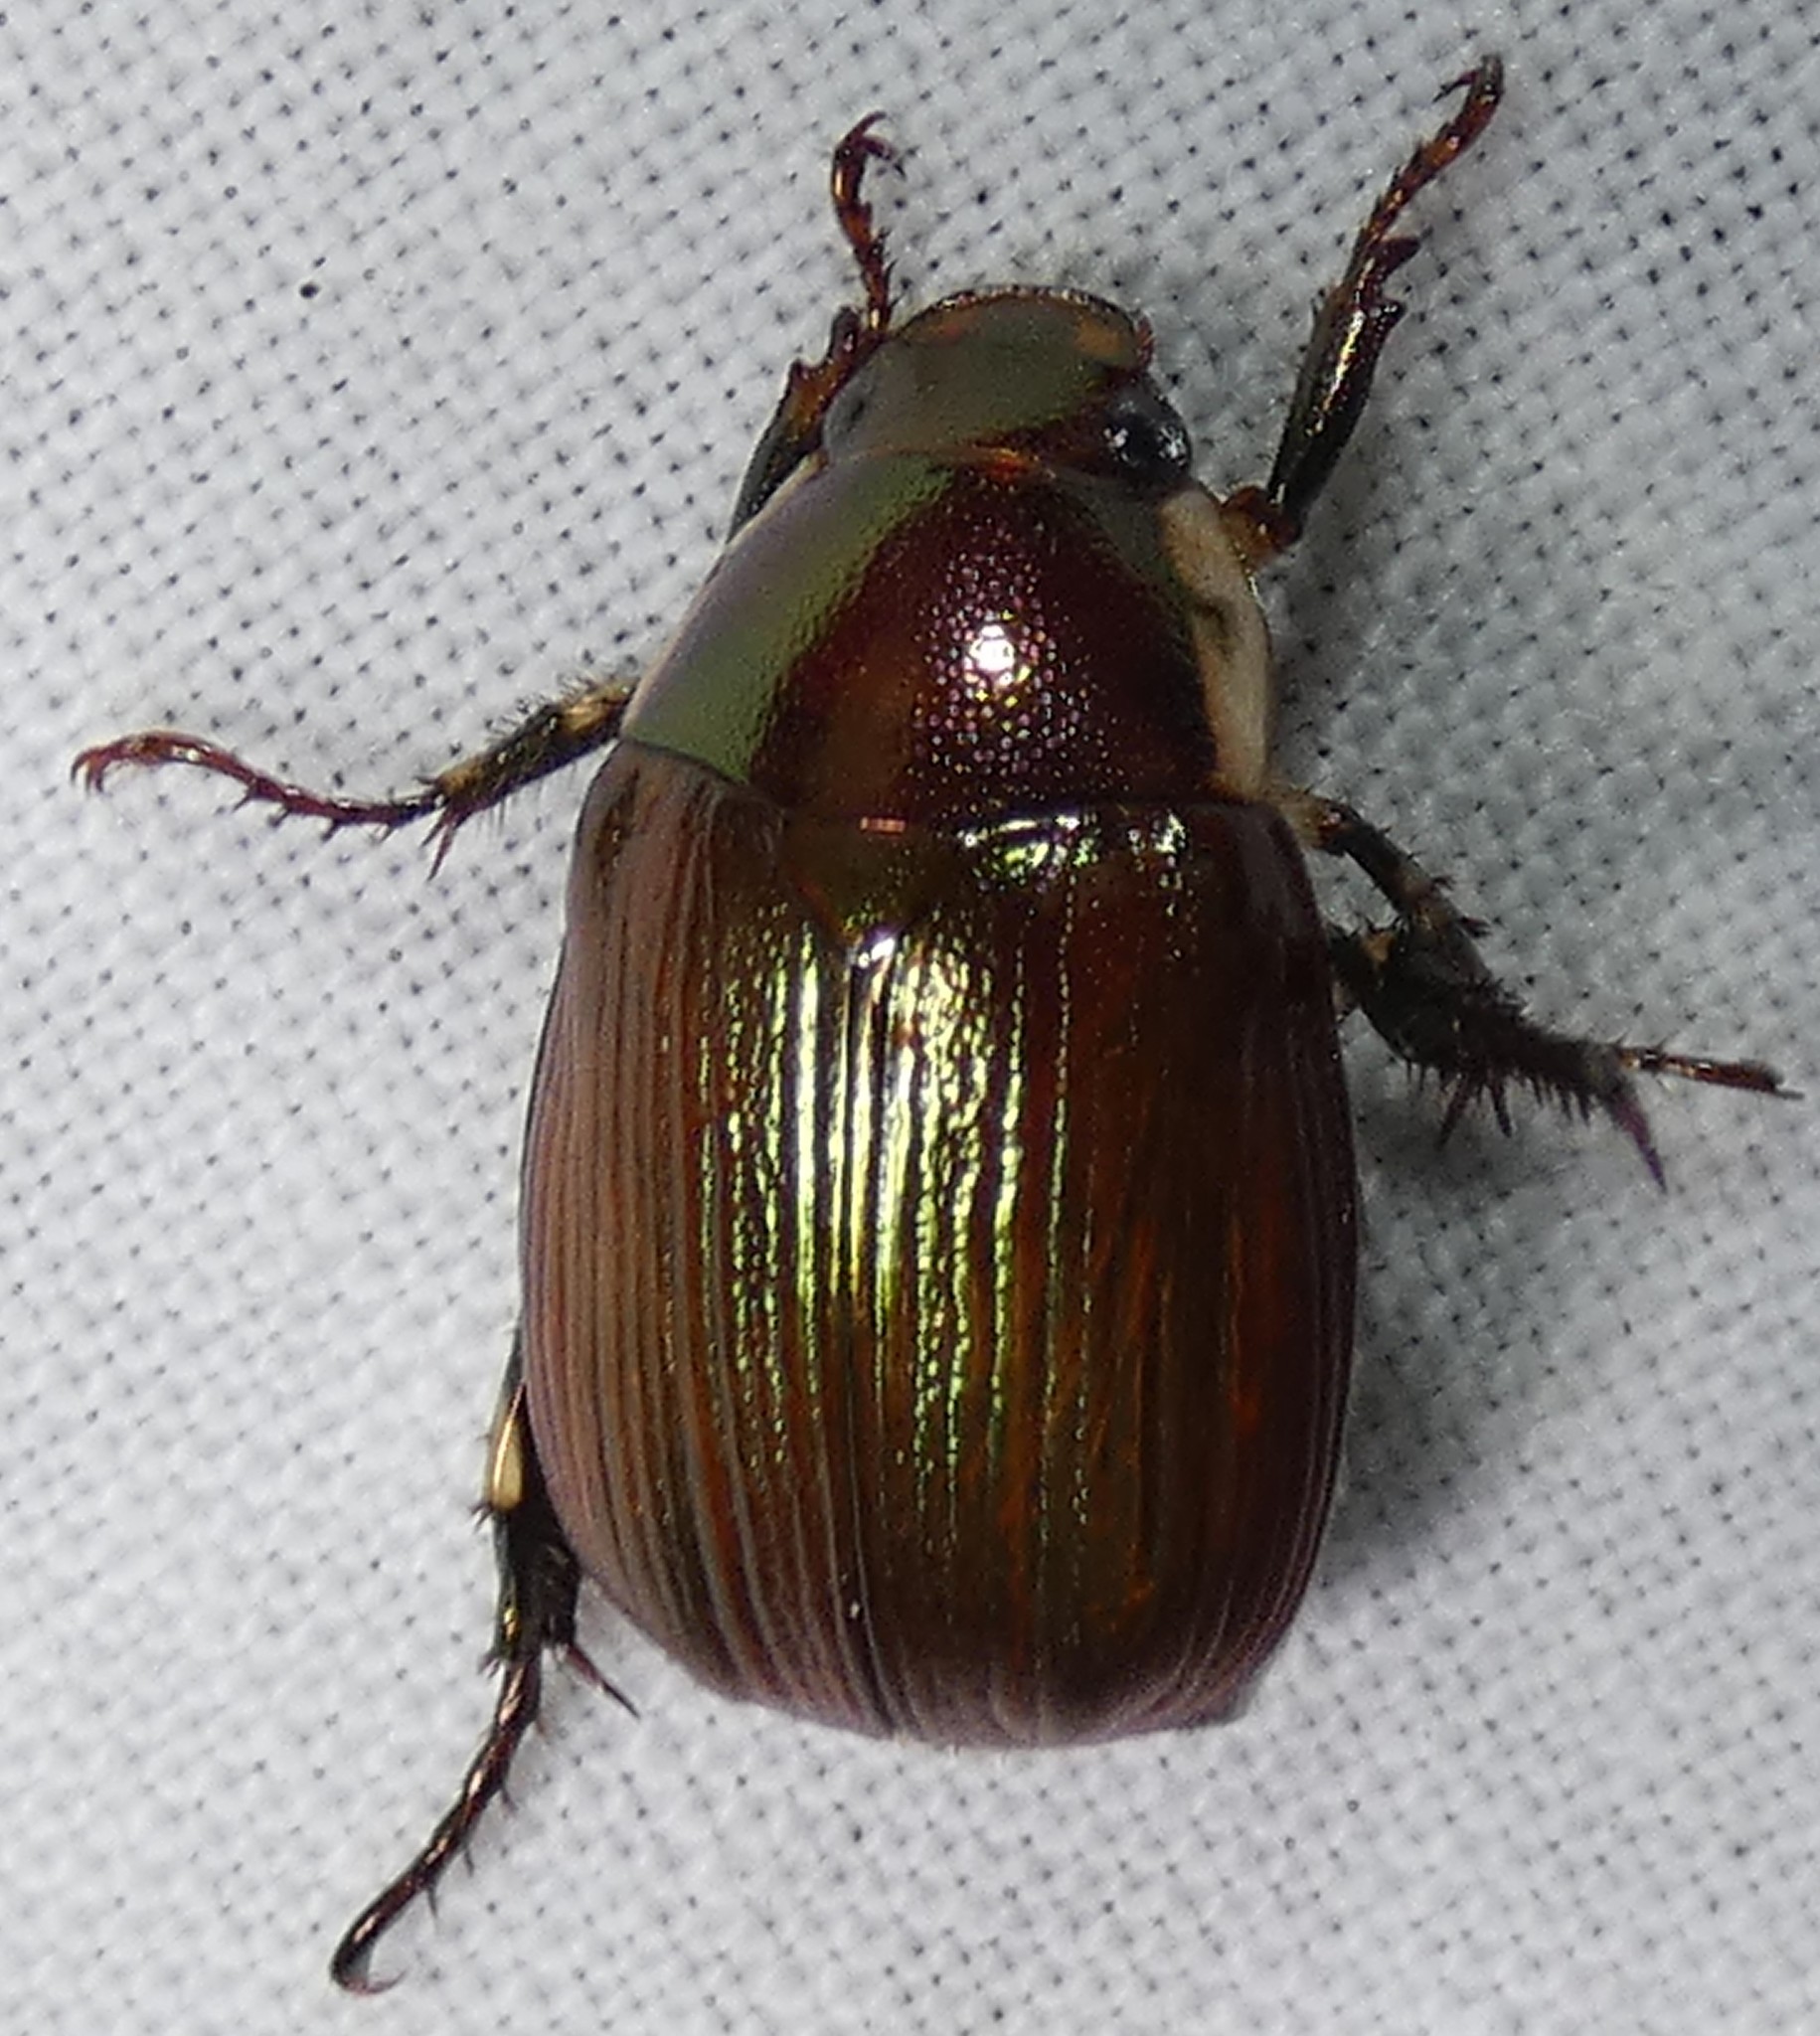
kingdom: Animalia
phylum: Arthropoda
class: Insecta
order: Coleoptera
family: Scarabaeidae
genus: Callistethus
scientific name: Callistethus marginatus
